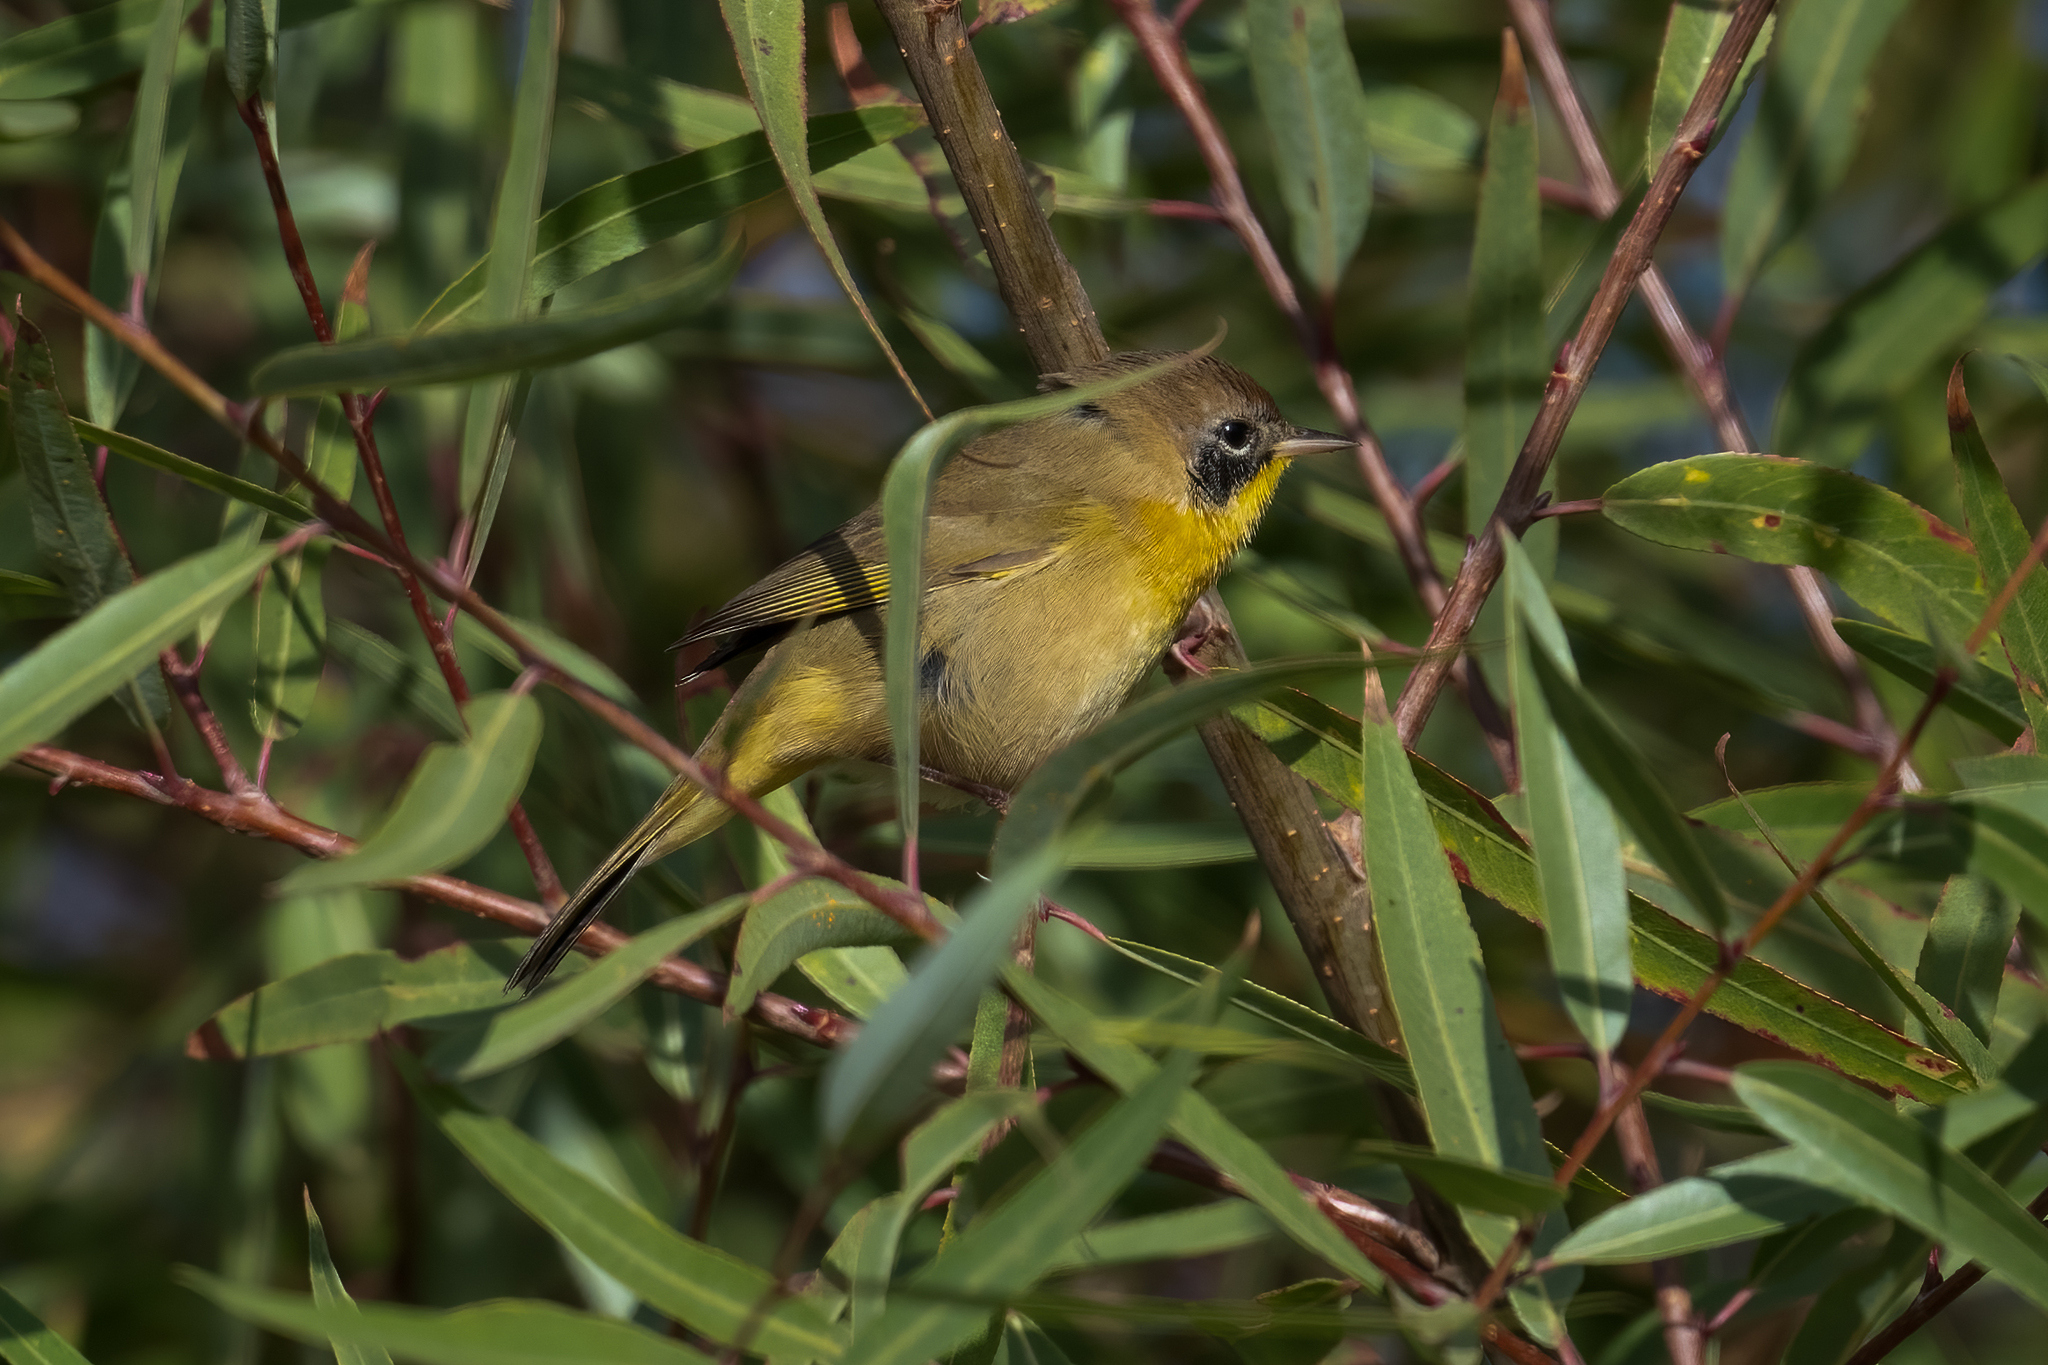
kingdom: Animalia
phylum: Chordata
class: Aves
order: Passeriformes
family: Parulidae
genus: Geothlypis
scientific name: Geothlypis trichas
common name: Common yellowthroat
